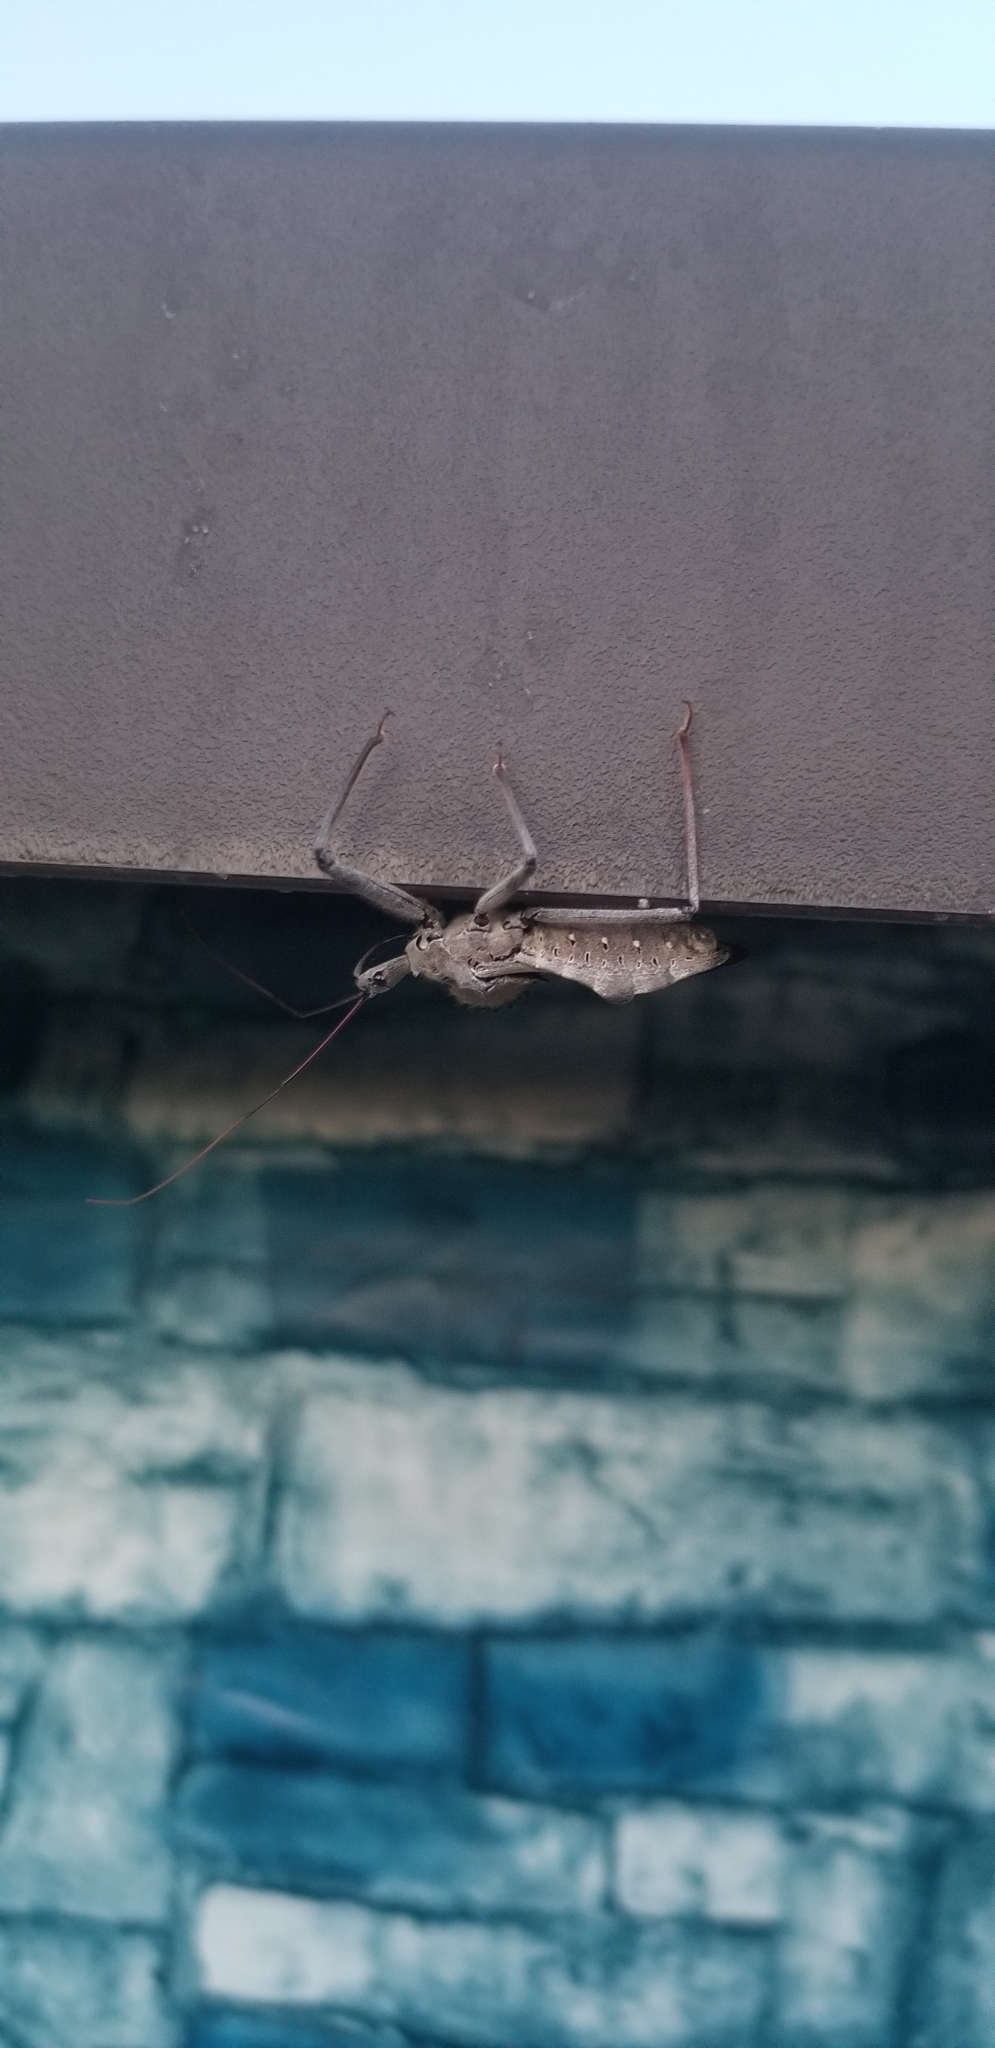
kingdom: Animalia
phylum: Arthropoda
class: Insecta
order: Hemiptera
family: Reduviidae
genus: Arilus
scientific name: Arilus cristatus
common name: North american wheel bug
